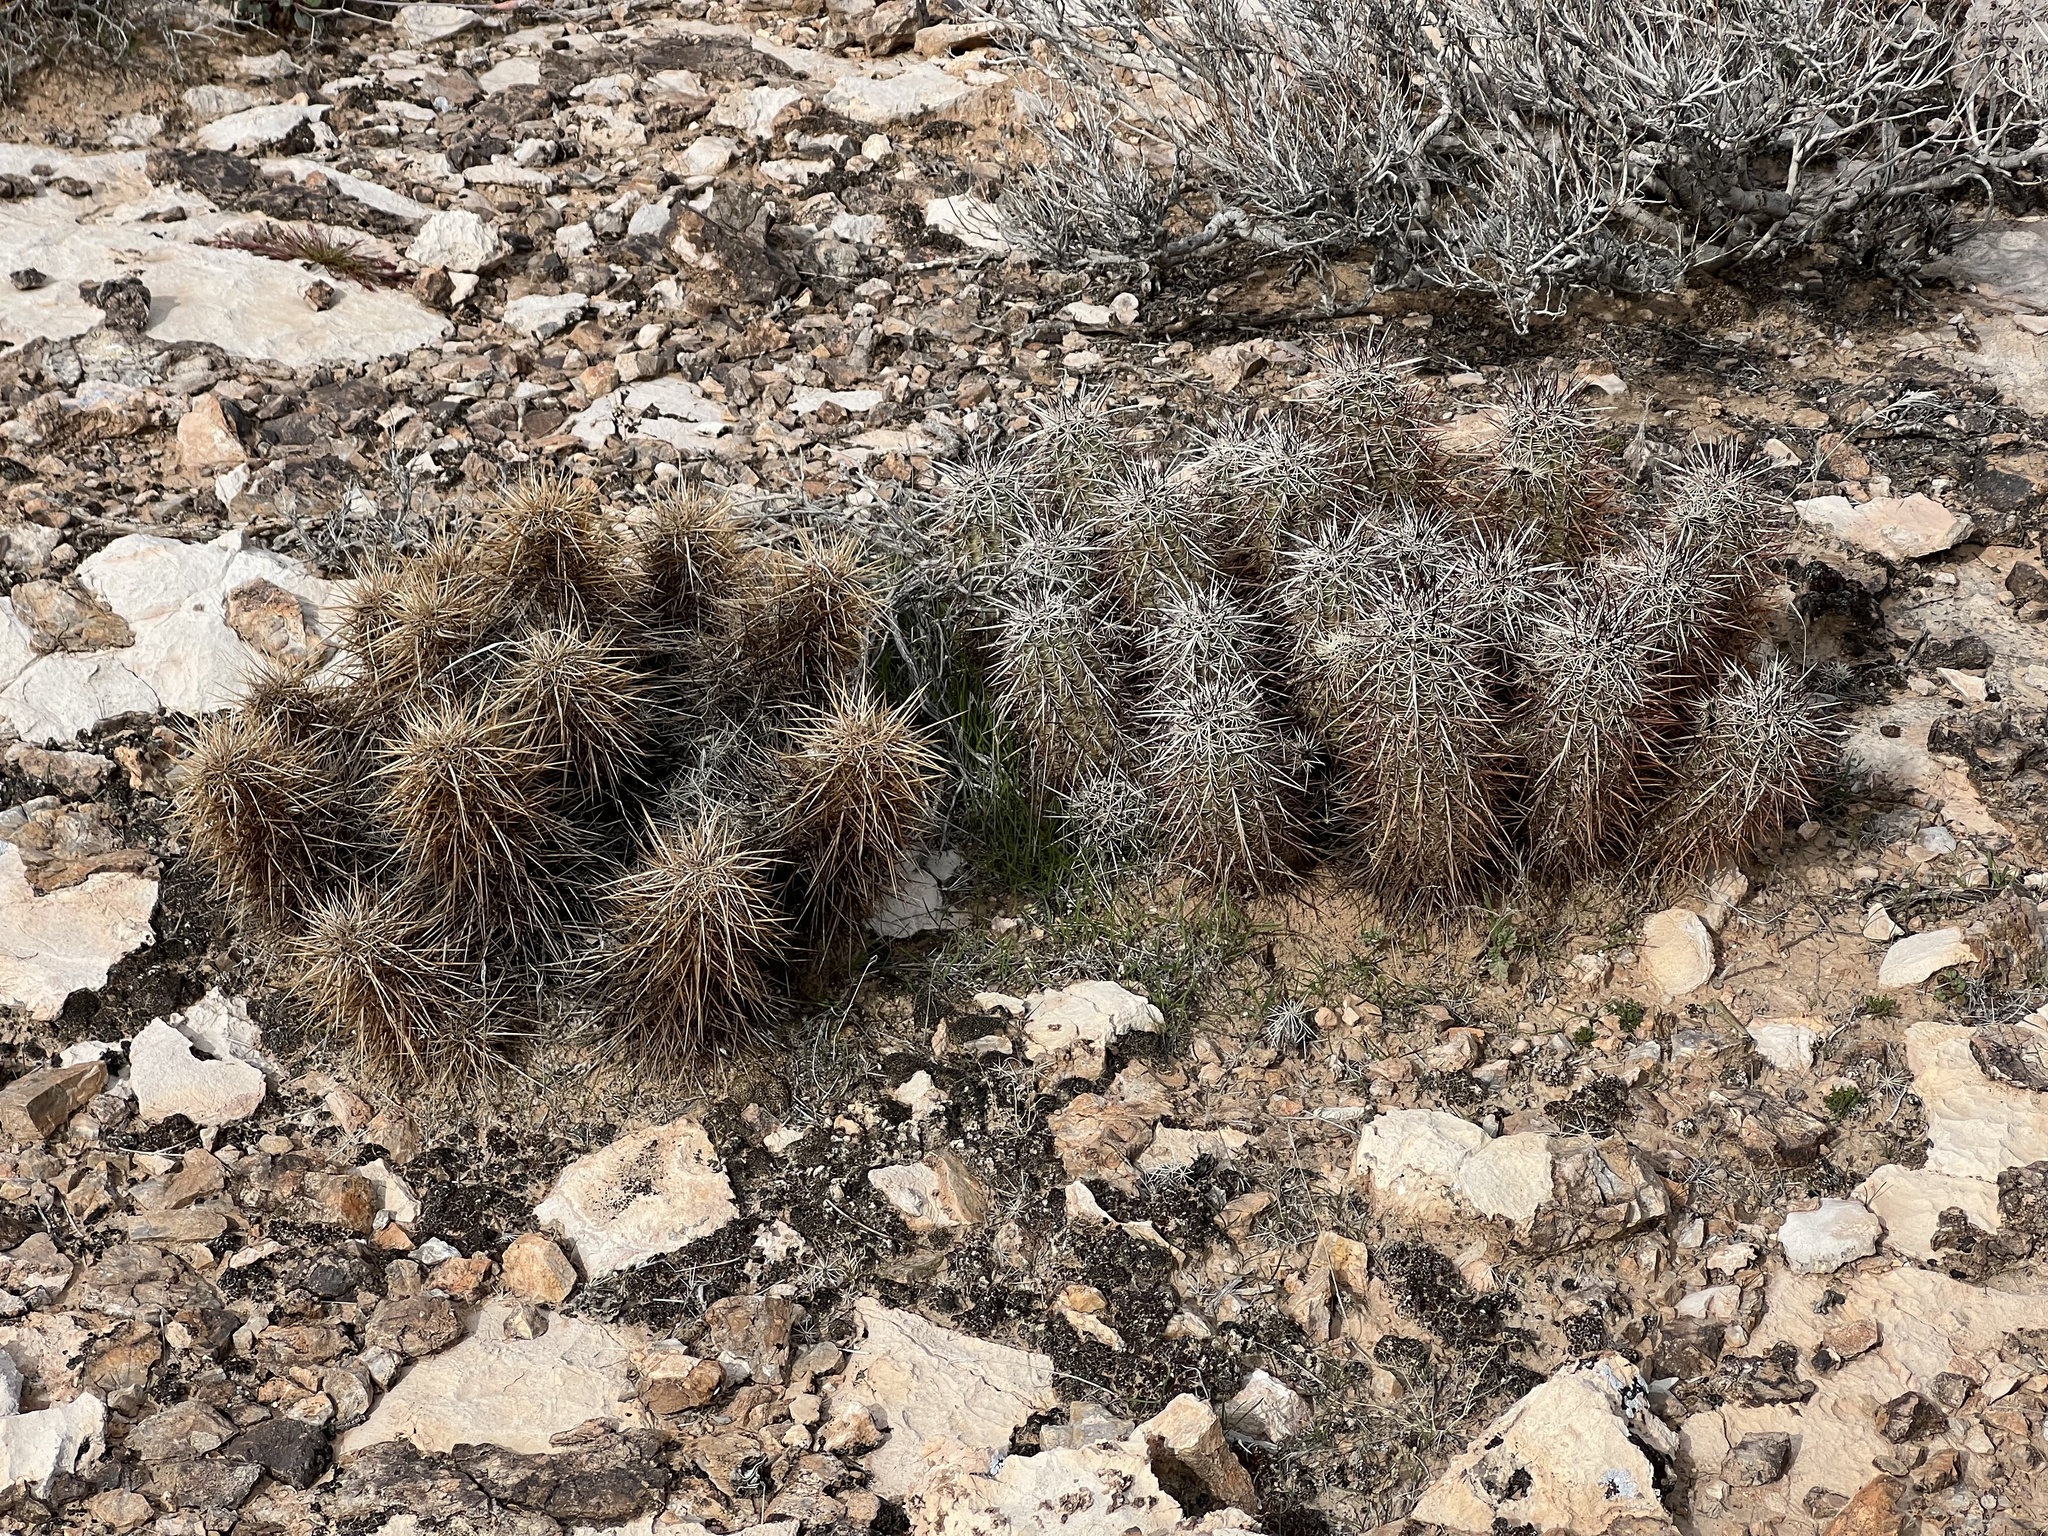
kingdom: Plantae
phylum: Tracheophyta
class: Magnoliopsida
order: Caryophyllales
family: Cactaceae
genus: Echinocereus
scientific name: Echinocereus engelmannii
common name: Engelmann's hedgehog cactus
